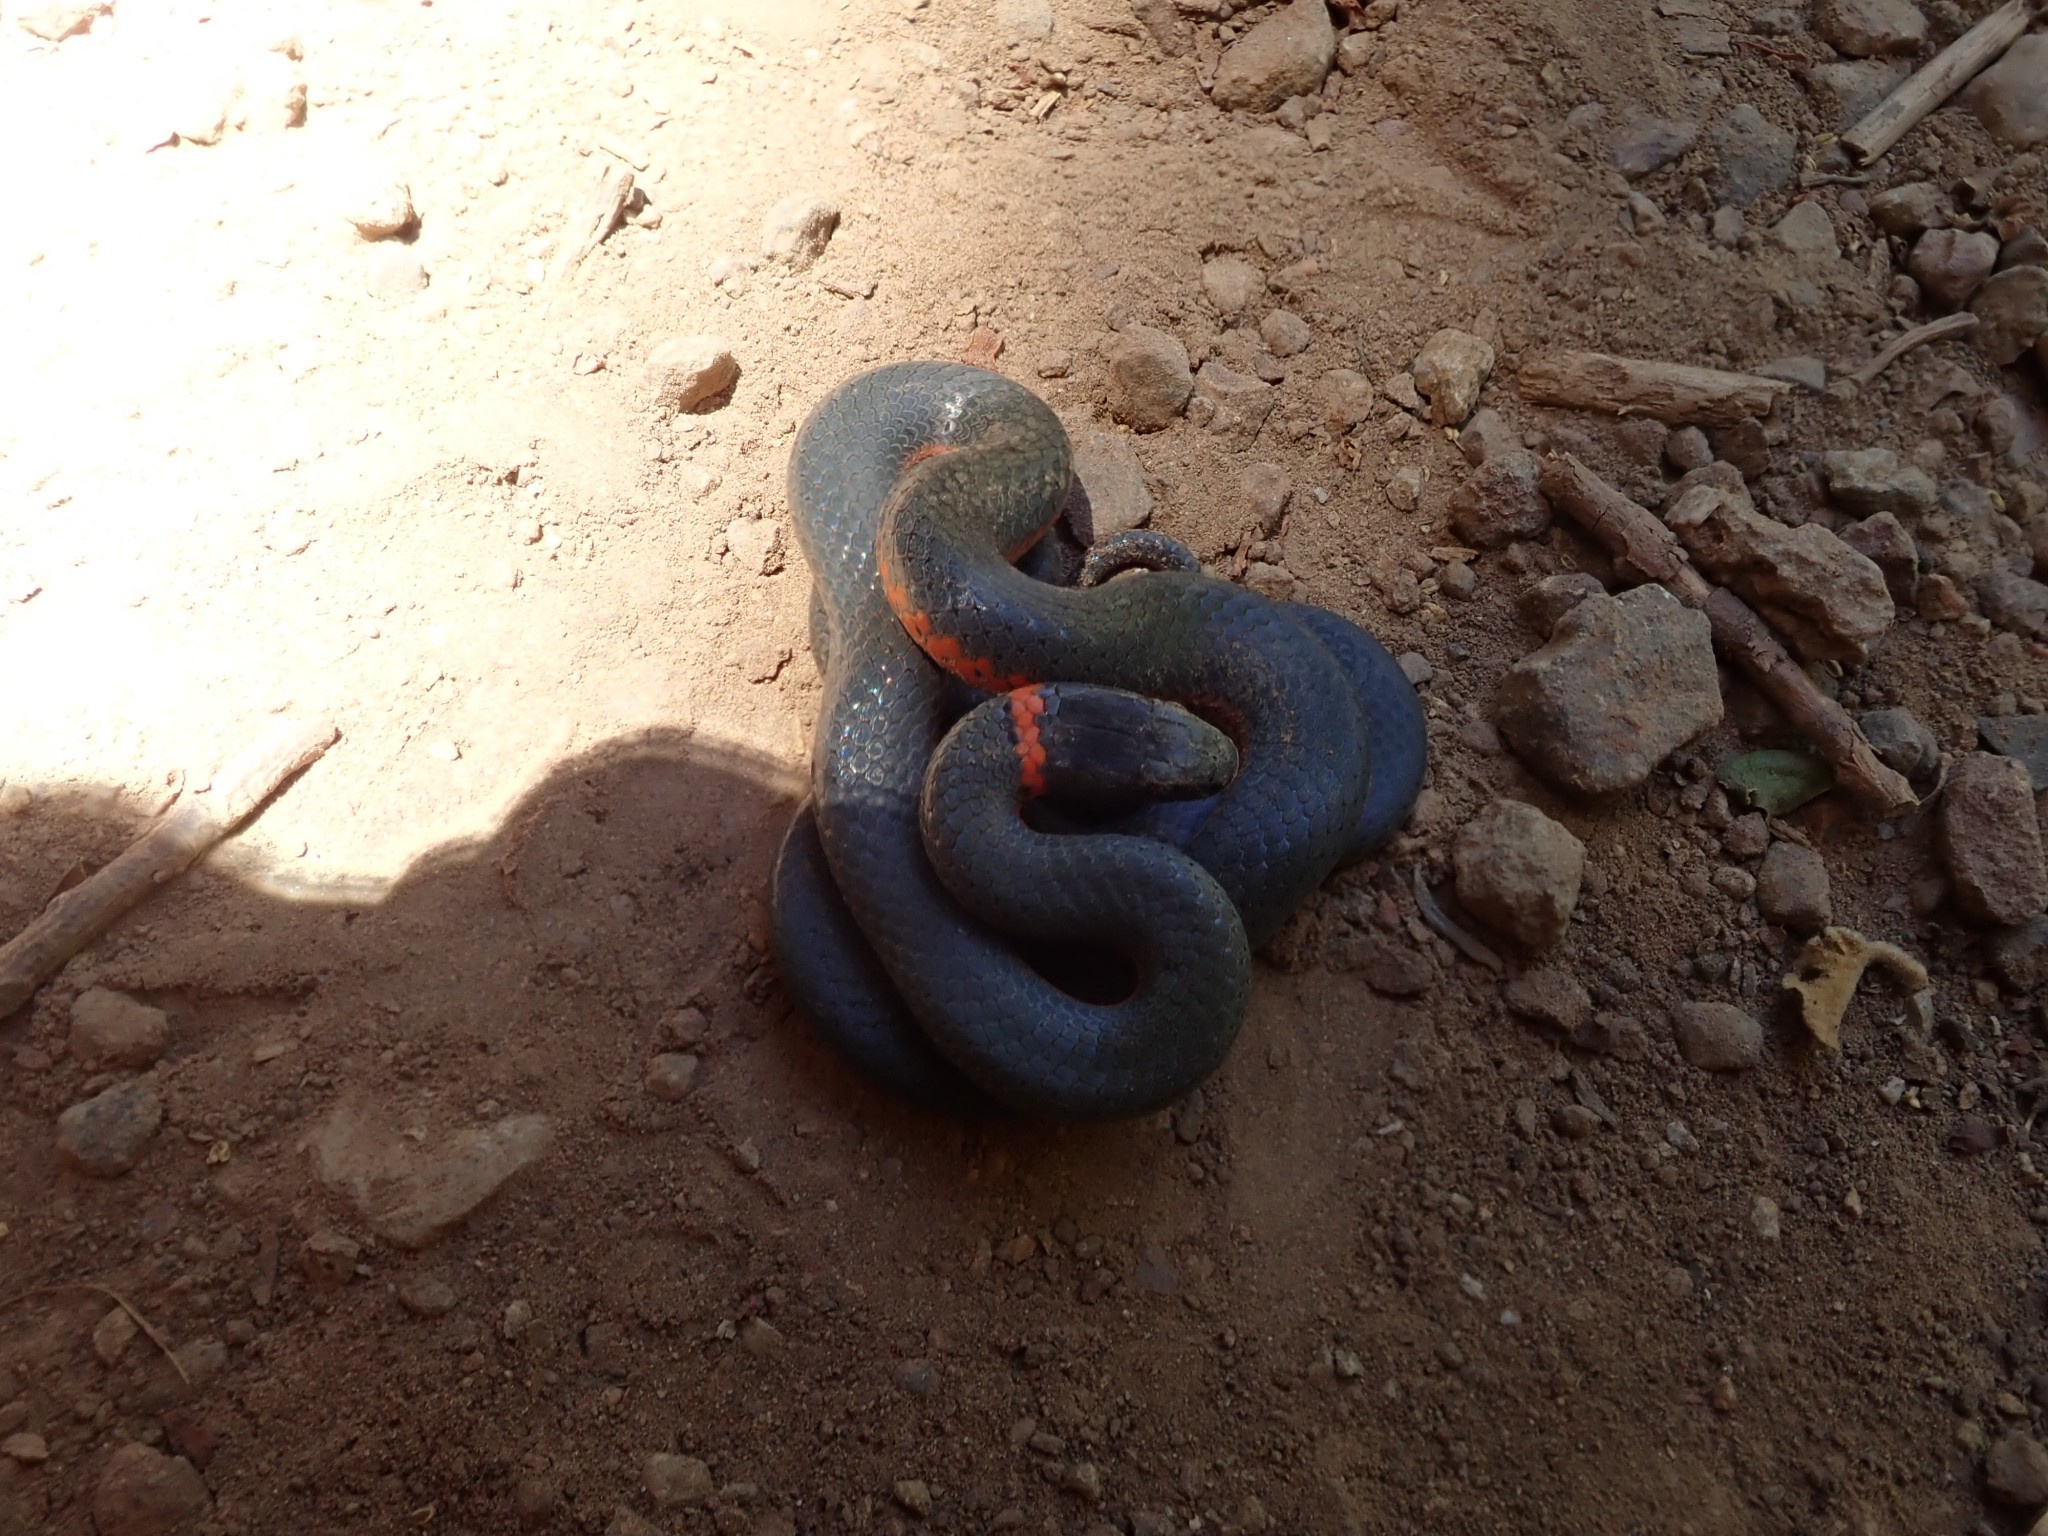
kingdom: Animalia
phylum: Chordata
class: Squamata
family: Colubridae
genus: Diadophis
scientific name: Diadophis punctatus
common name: Ringneck snake
